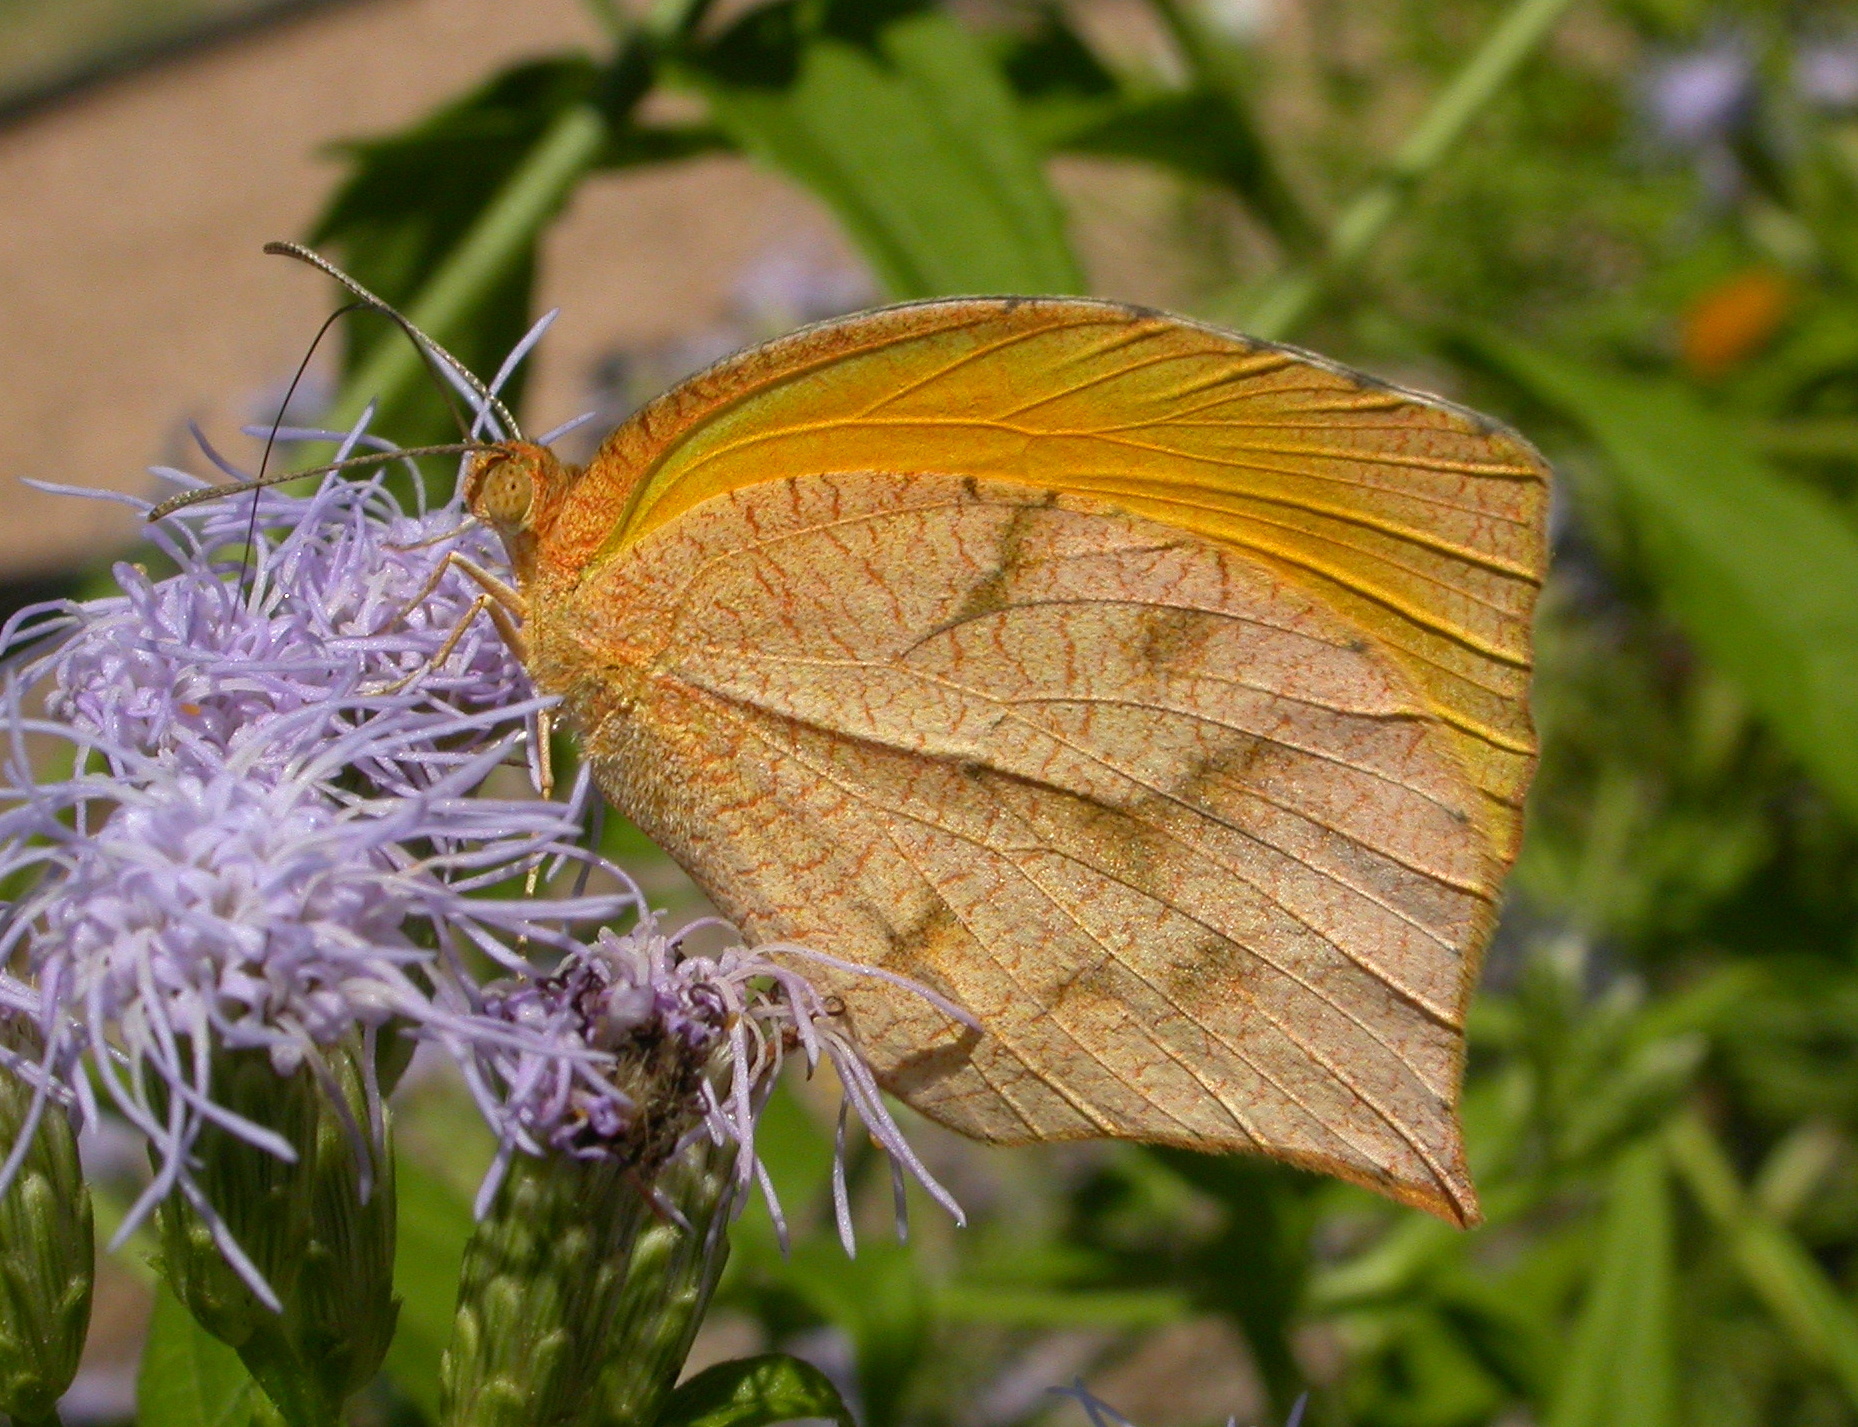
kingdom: Animalia
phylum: Arthropoda
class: Insecta
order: Lepidoptera
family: Pieridae
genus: Pyrisitia
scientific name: Pyrisitia proterpia
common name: Tailed orange
